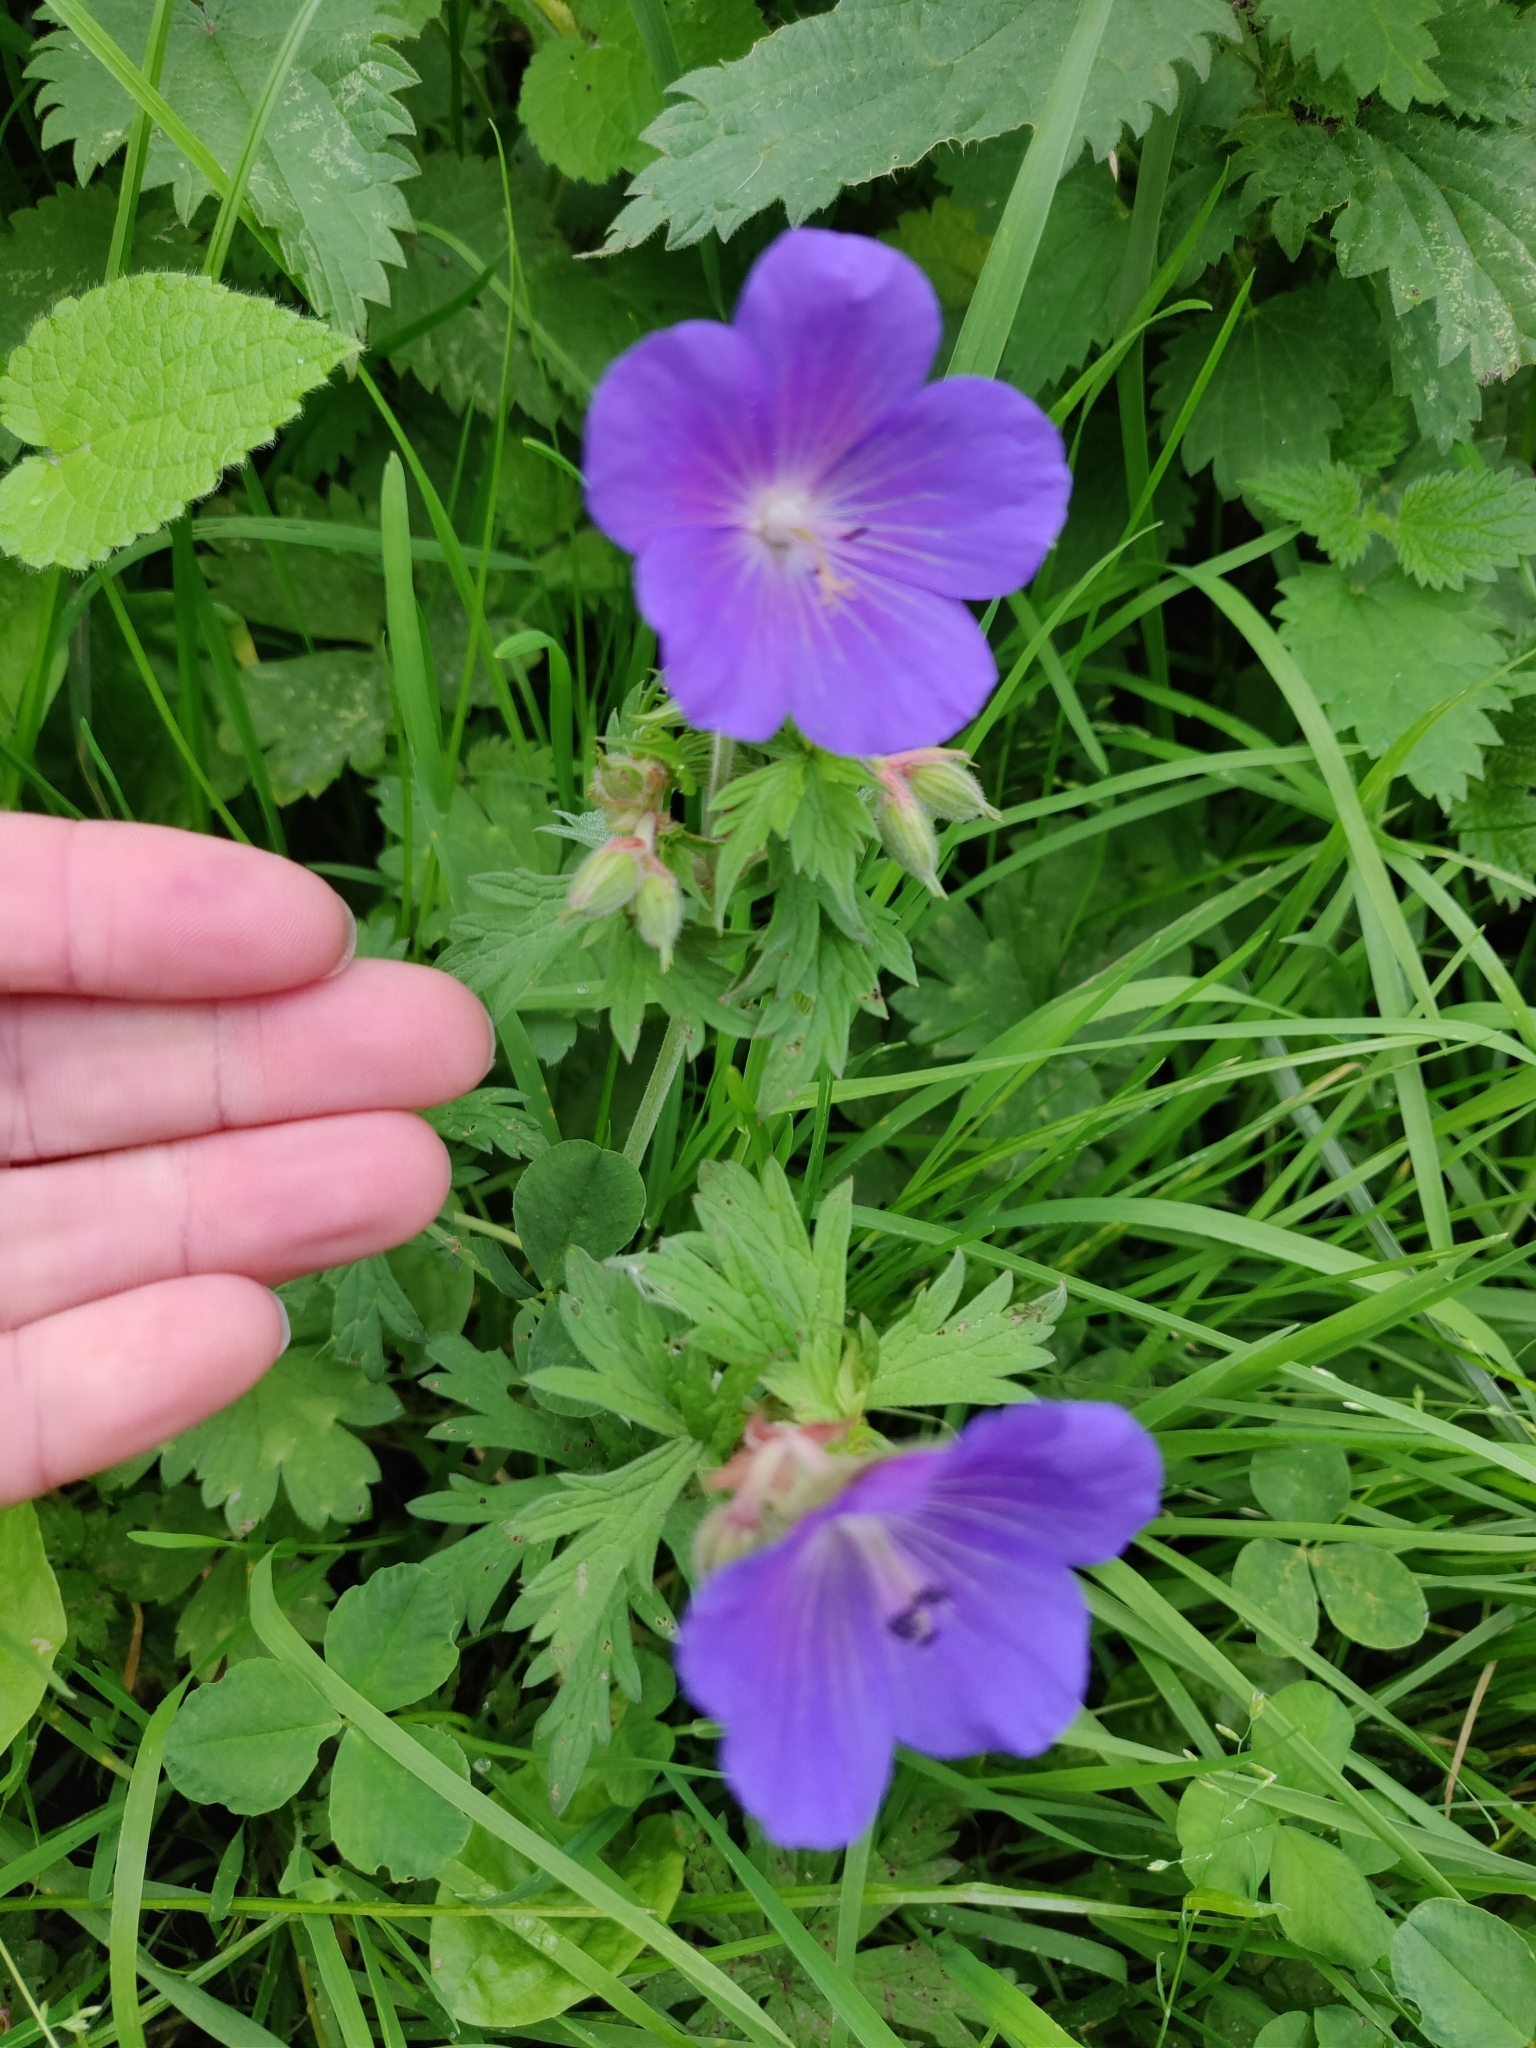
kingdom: Plantae
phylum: Tracheophyta
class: Magnoliopsida
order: Geraniales
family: Geraniaceae
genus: Geranium
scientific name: Geranium pratense
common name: Meadow crane's-bill
